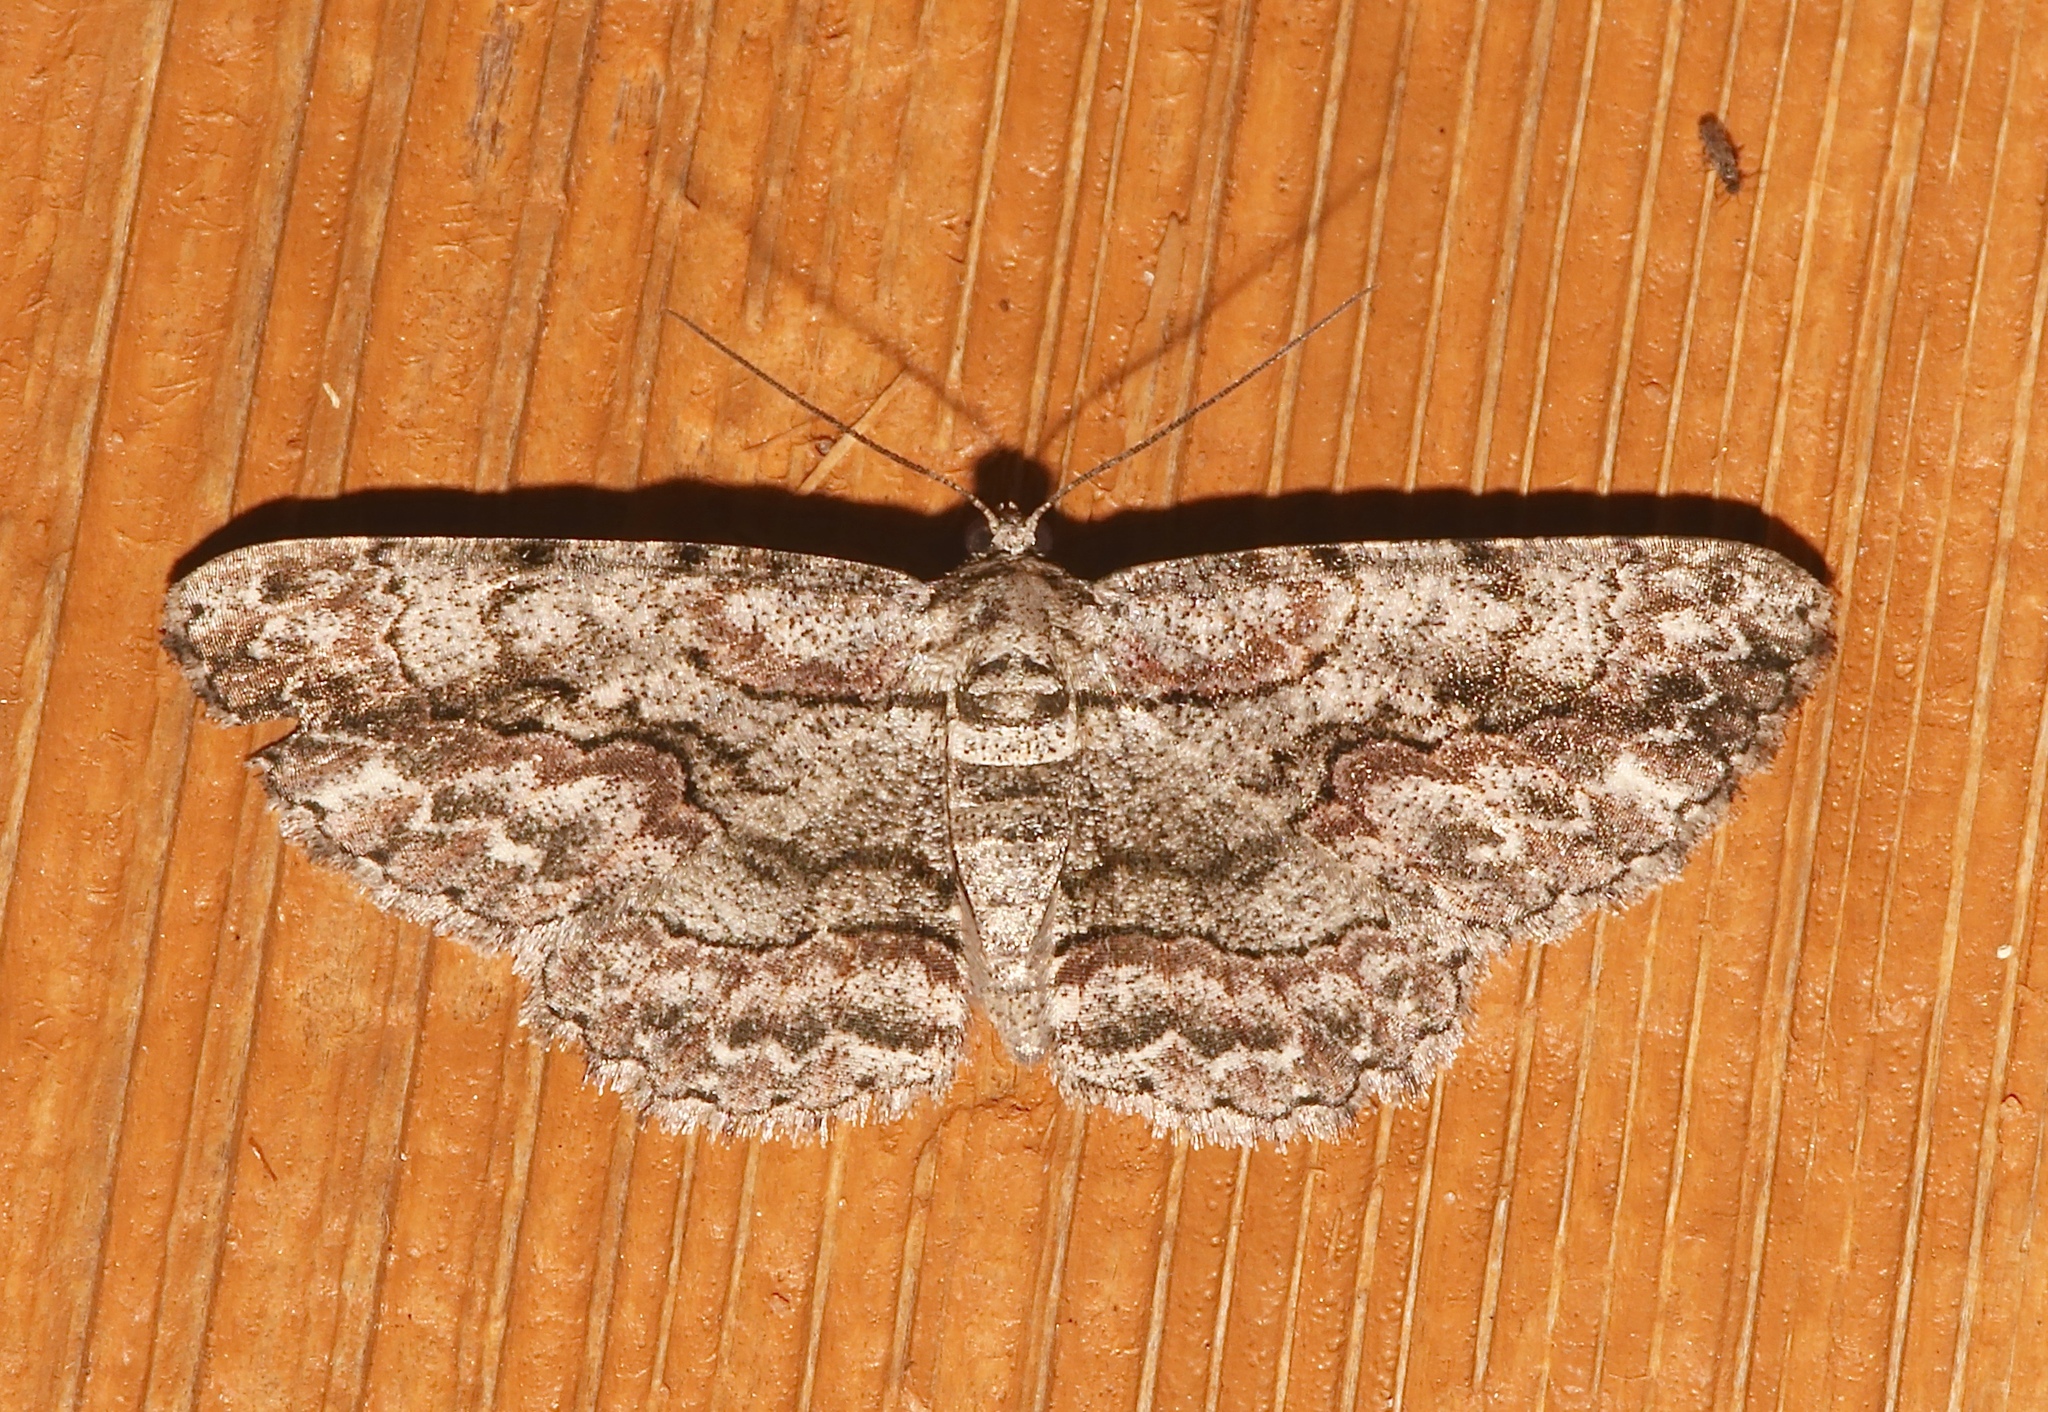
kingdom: Animalia
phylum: Arthropoda
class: Insecta
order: Lepidoptera
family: Geometridae
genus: Anavitrinella
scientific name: Anavitrinella pampinaria
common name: Common gray
